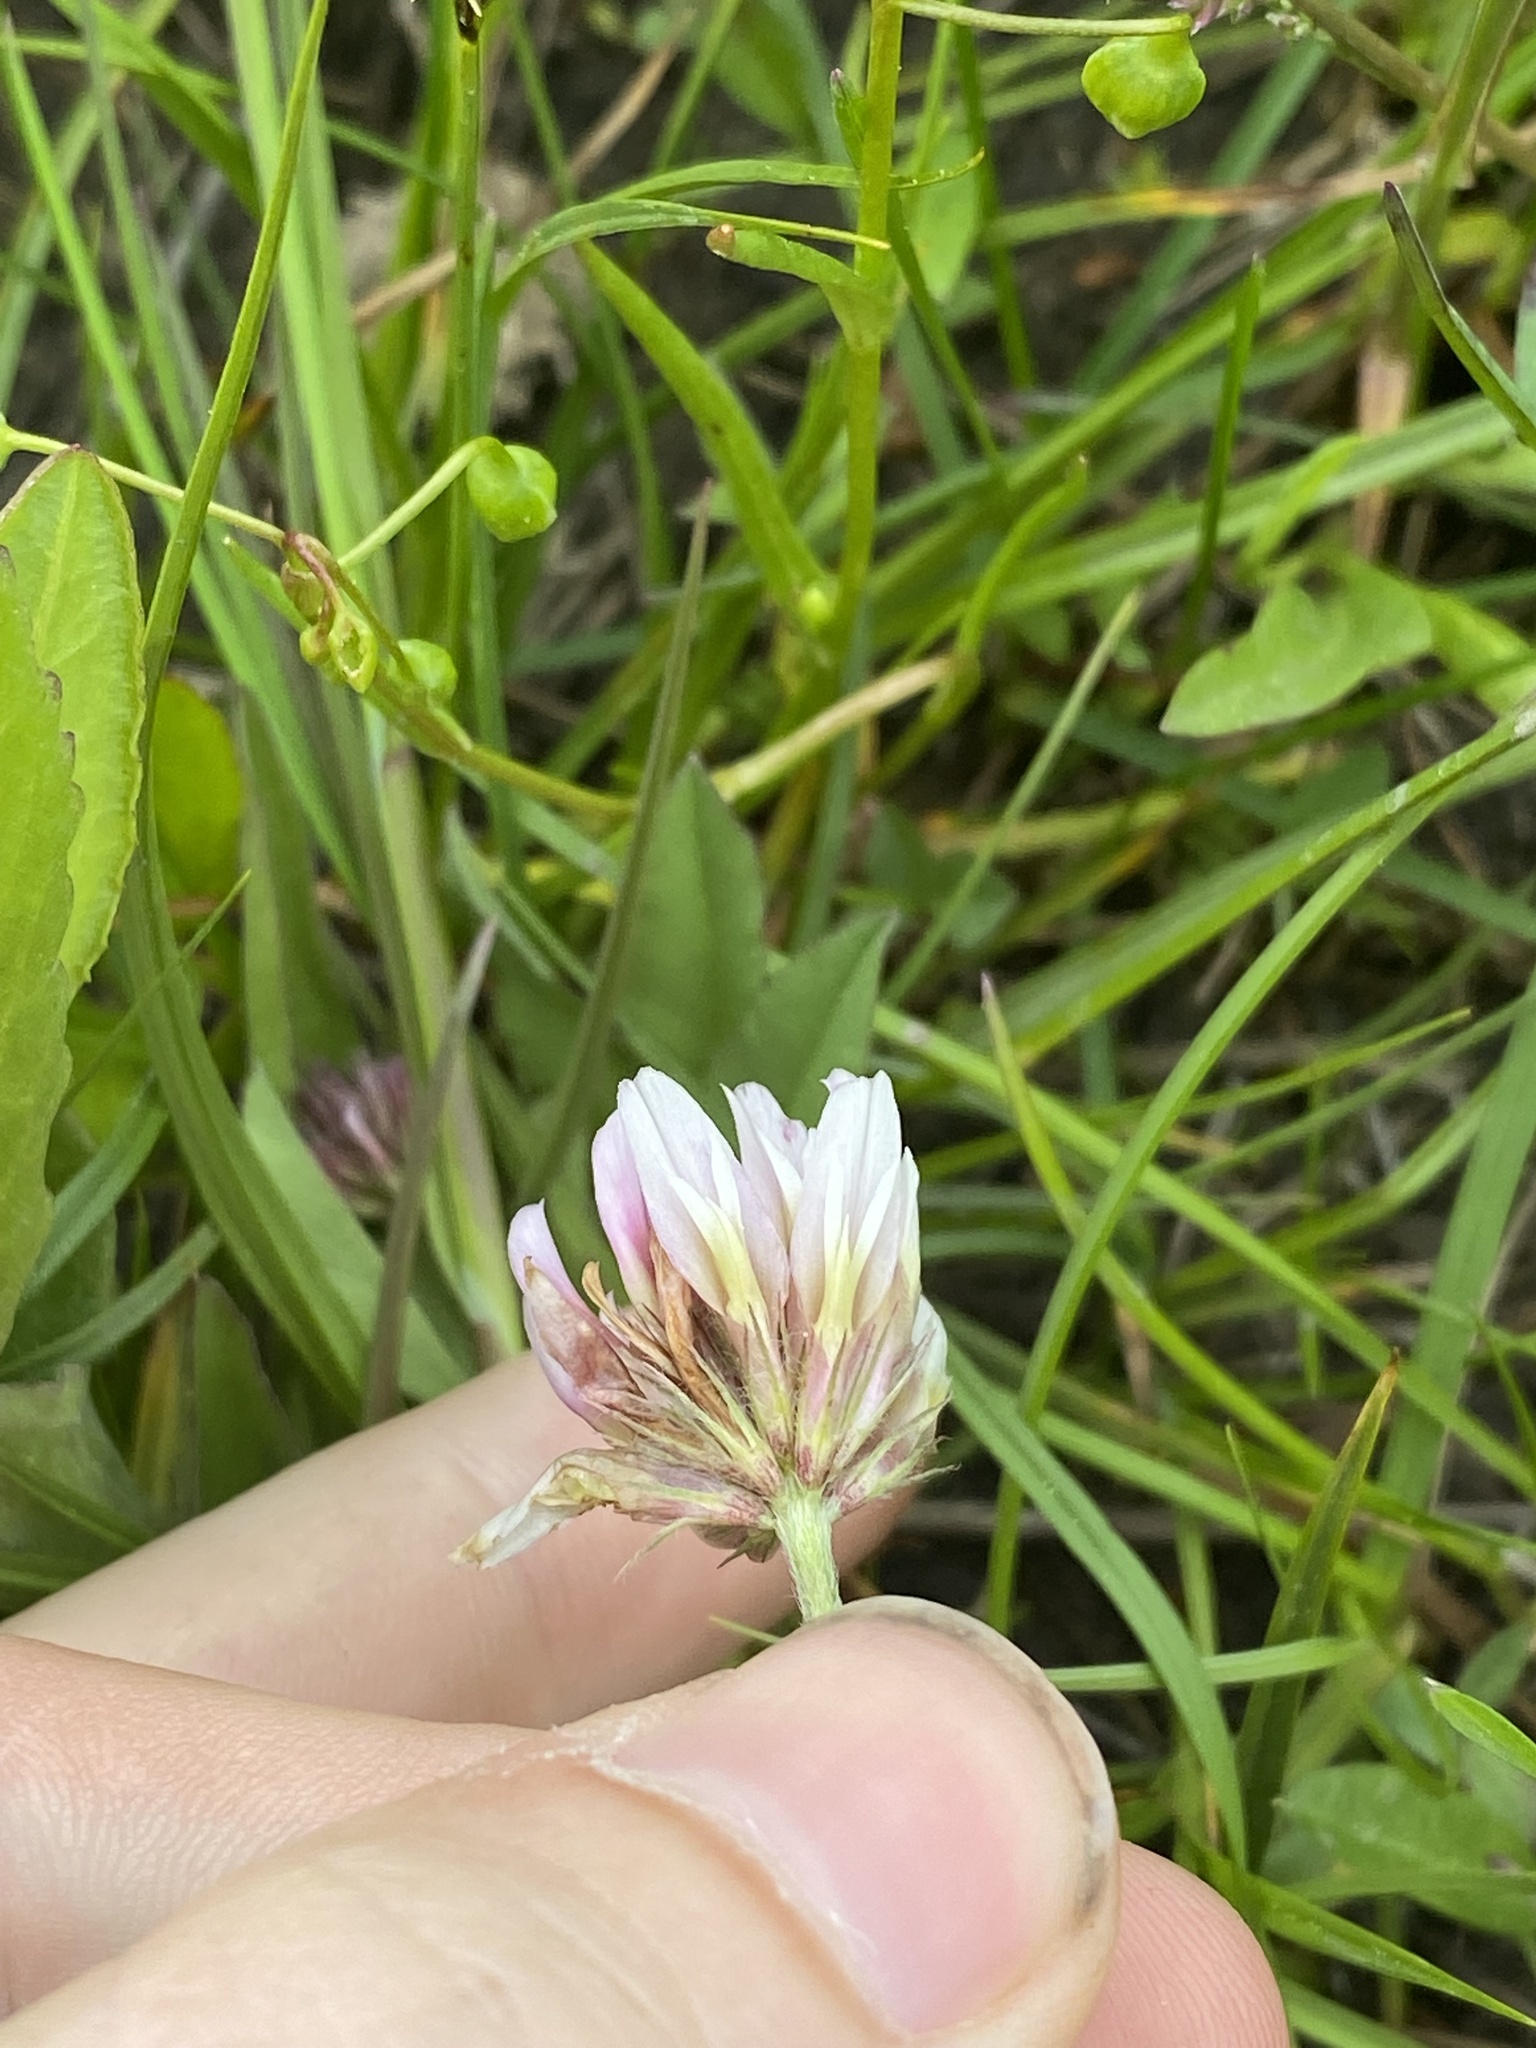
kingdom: Plantae
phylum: Tracheophyta
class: Magnoliopsida
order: Fabales
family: Fabaceae
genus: Trifolium
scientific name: Trifolium longipes
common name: Long-stalk clover
